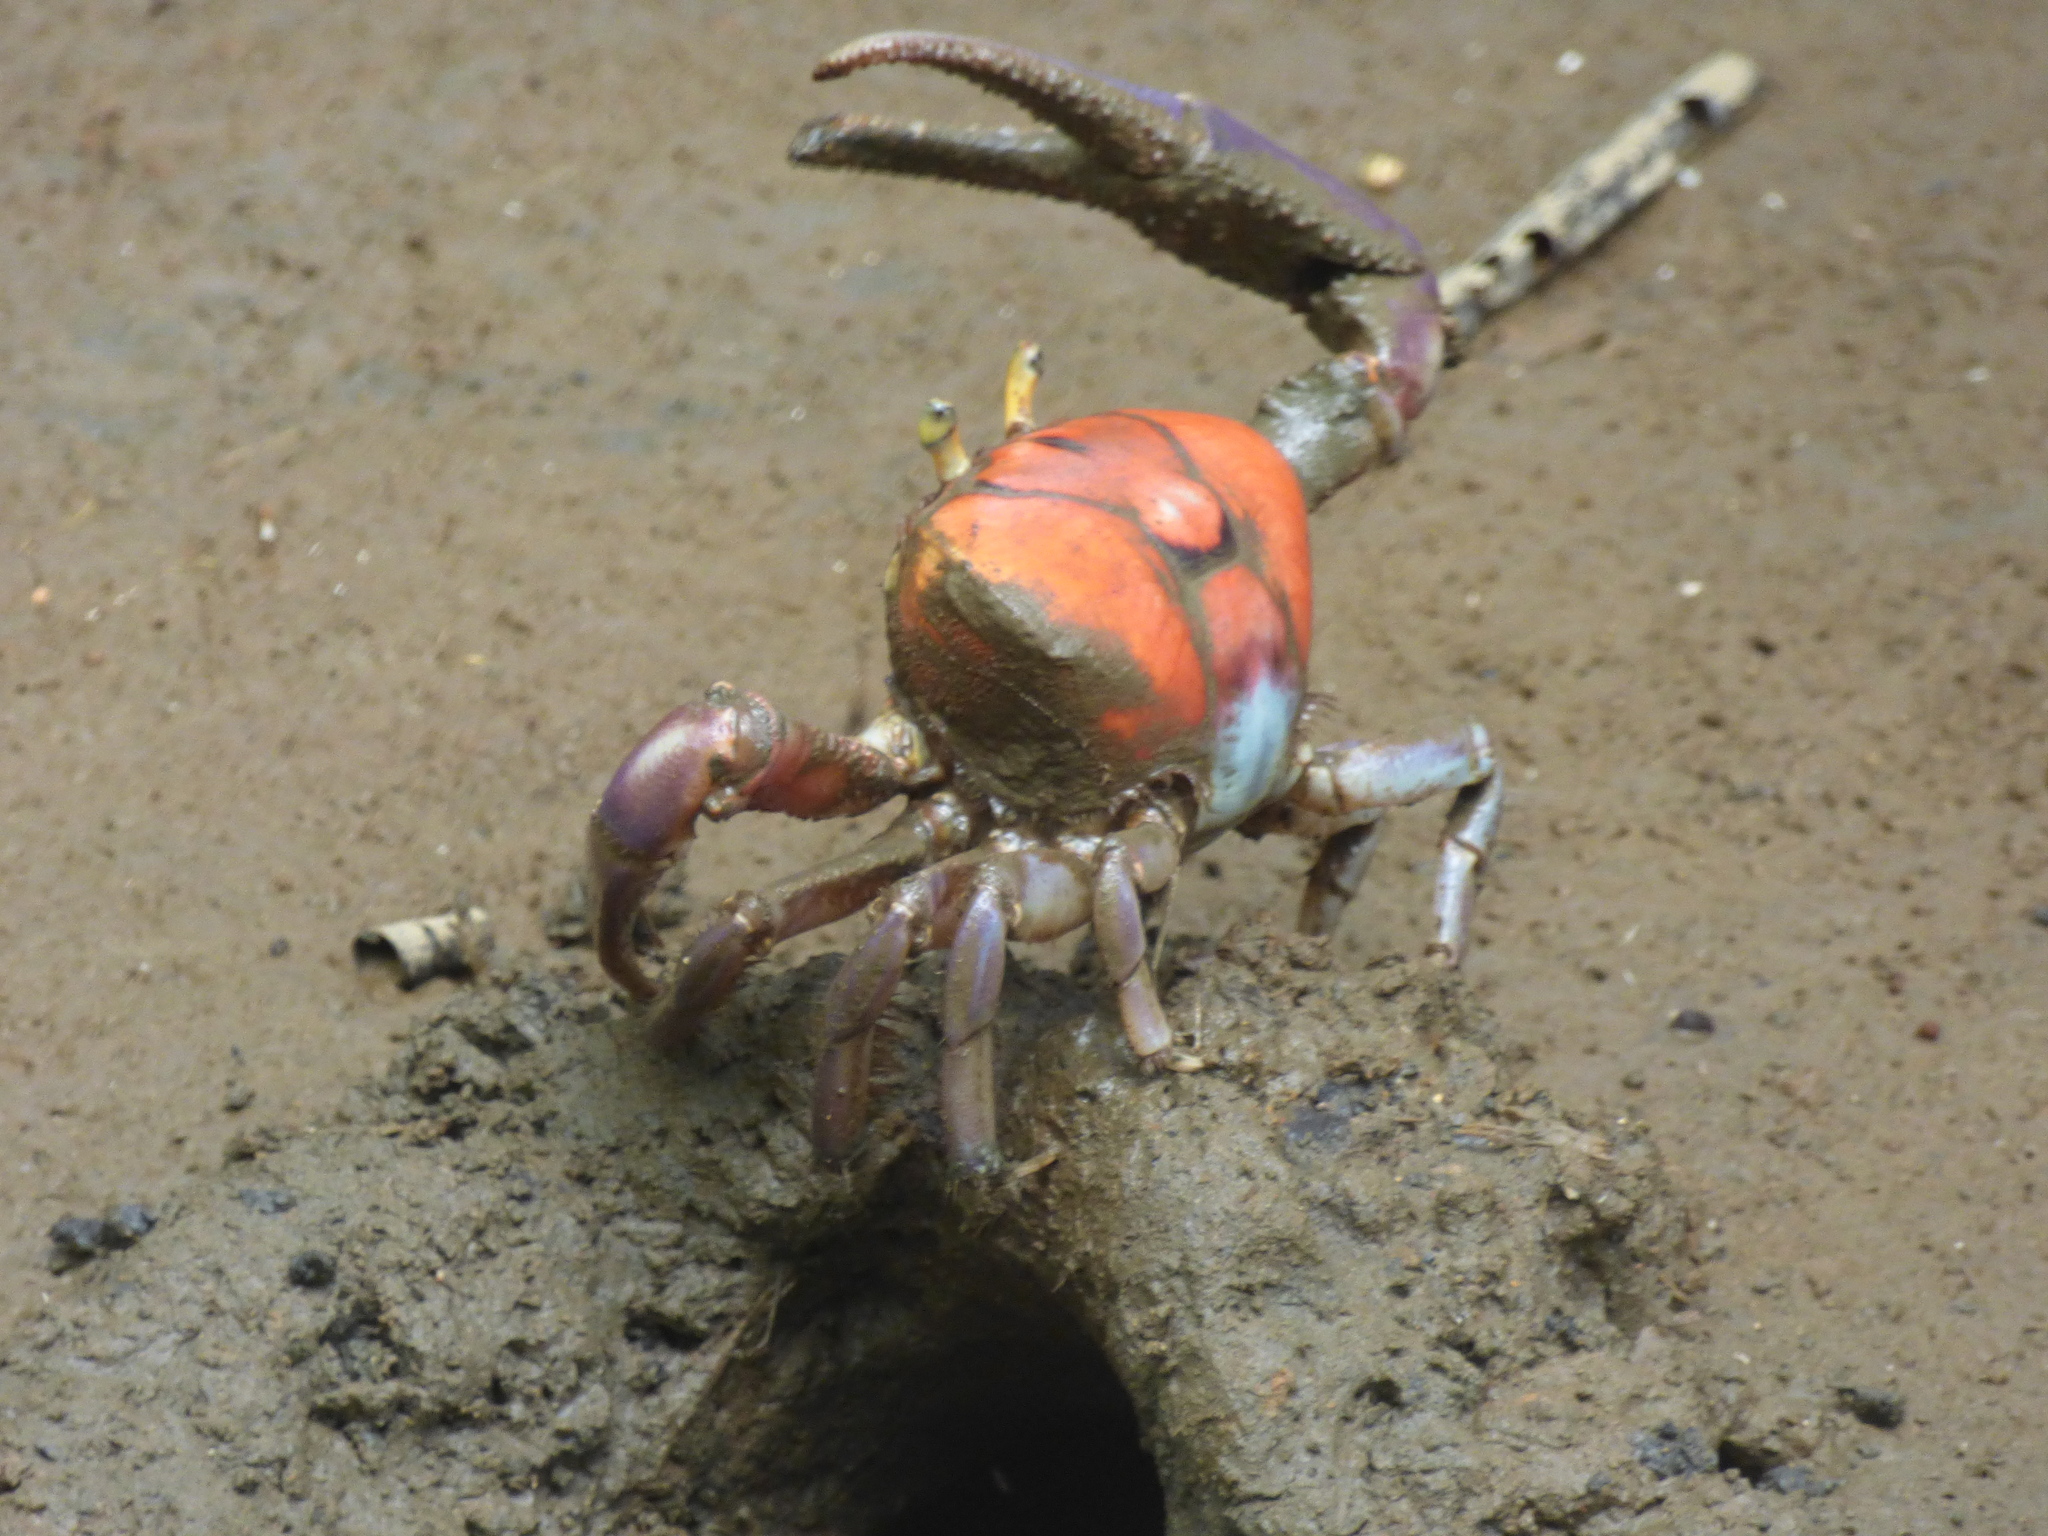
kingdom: Animalia
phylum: Arthropoda
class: Malacostraca
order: Decapoda
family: Ocypodidae
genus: Ucides
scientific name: Ucides occidentalis
